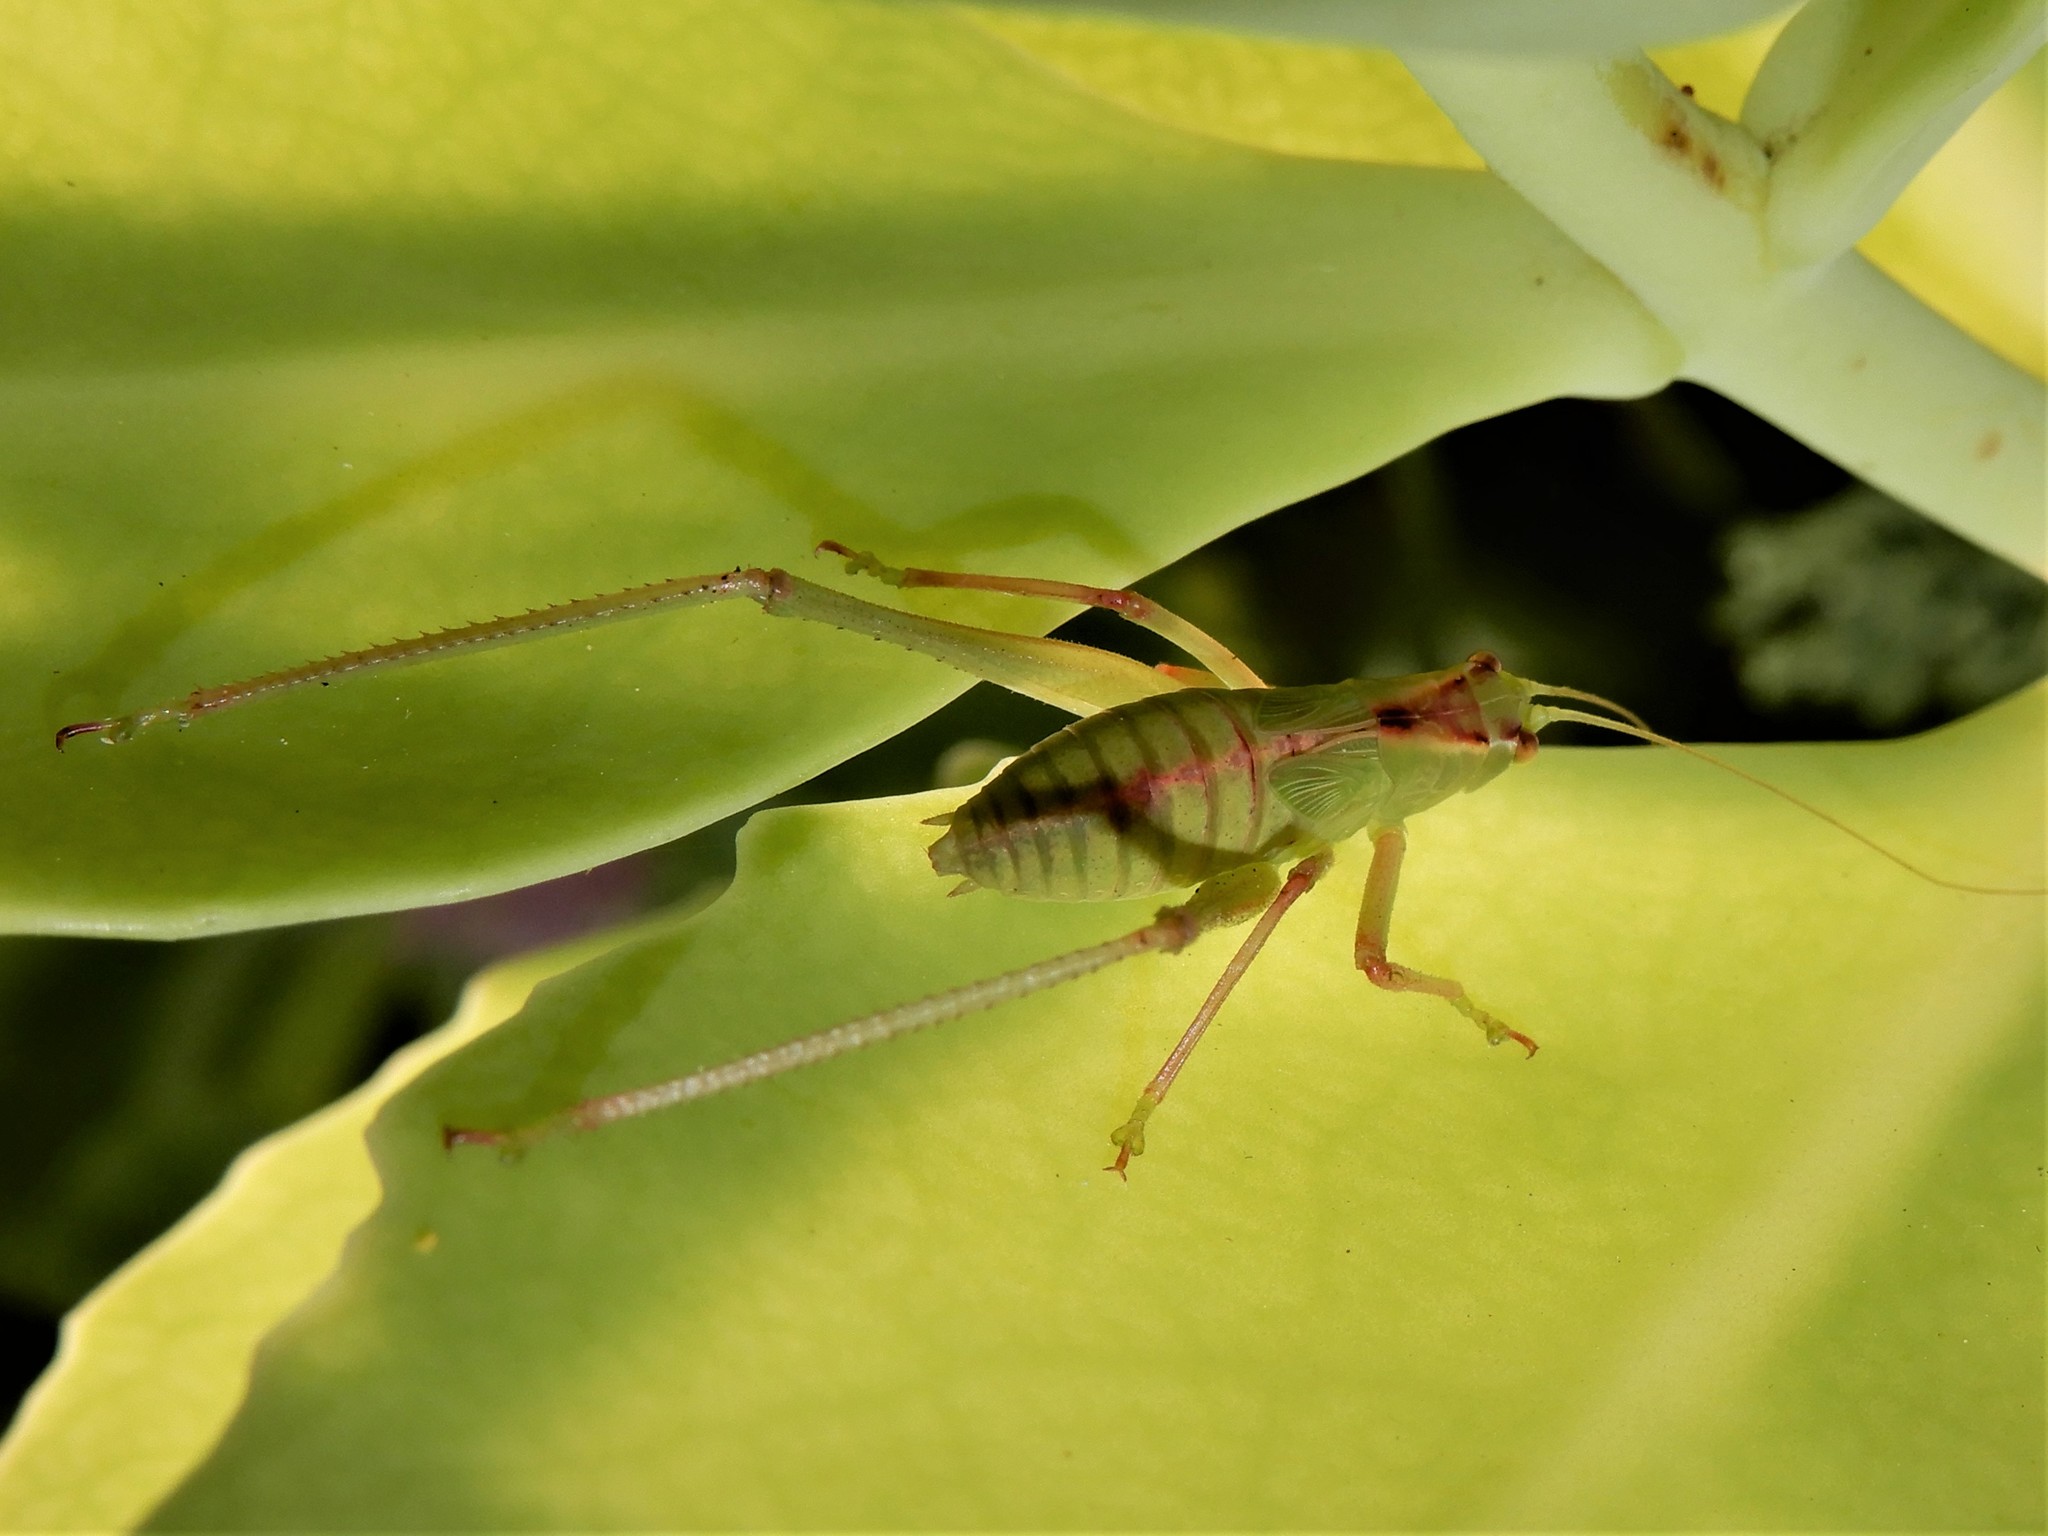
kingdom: Animalia
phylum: Arthropoda
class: Insecta
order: Orthoptera
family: Tettigoniidae
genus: Caedicia
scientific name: Caedicia simplex
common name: Common garden katydid
